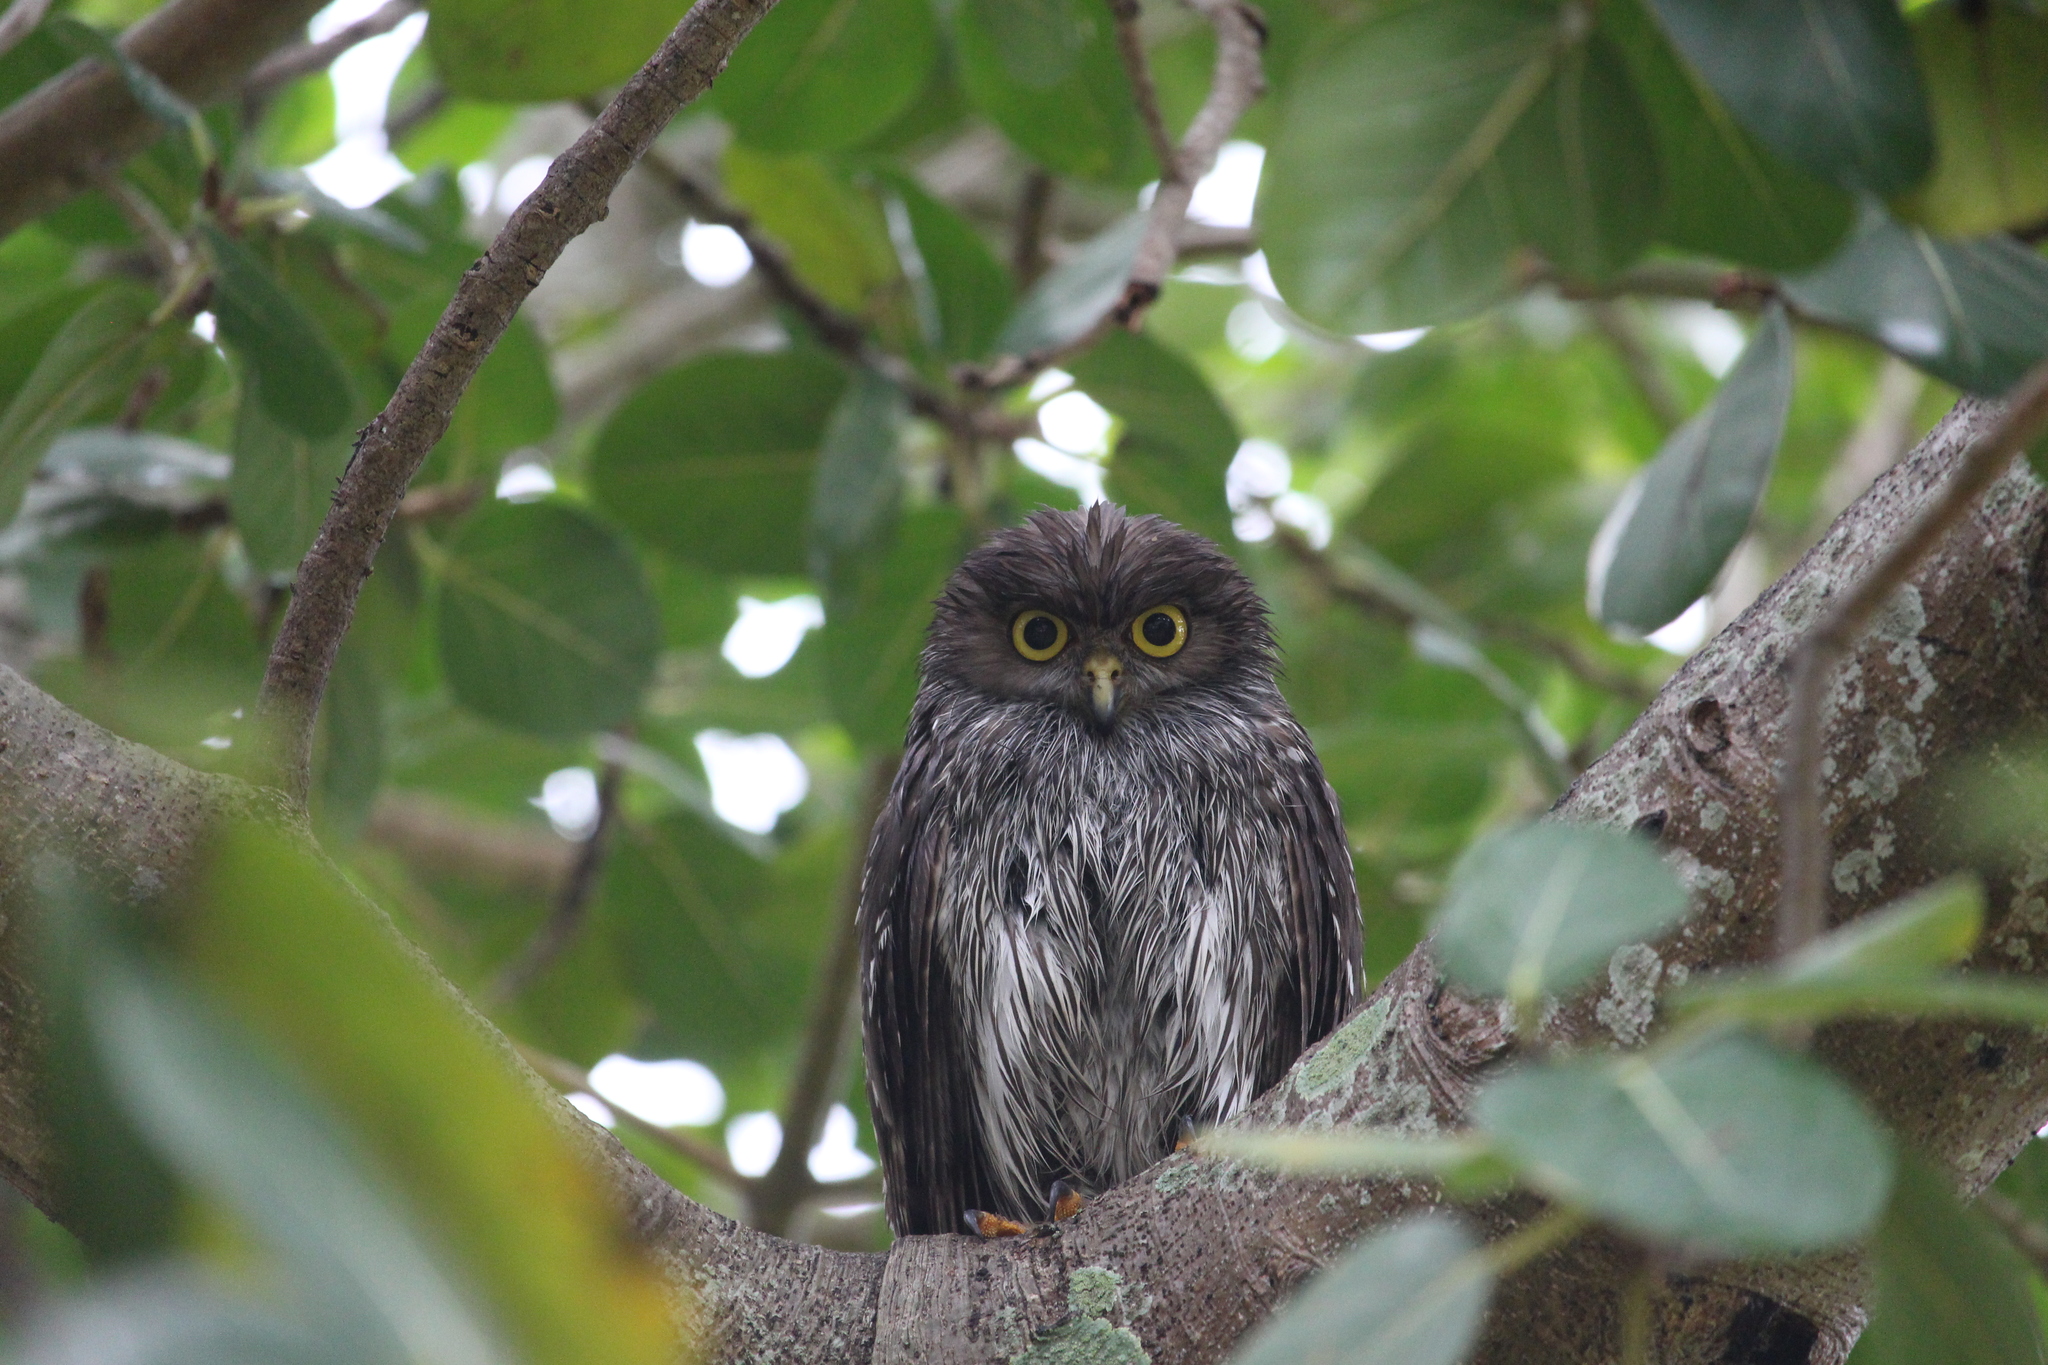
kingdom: Animalia
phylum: Chordata
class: Aves
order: Strigiformes
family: Strigidae
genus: Ninox
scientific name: Ninox connivens
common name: Barking owl
